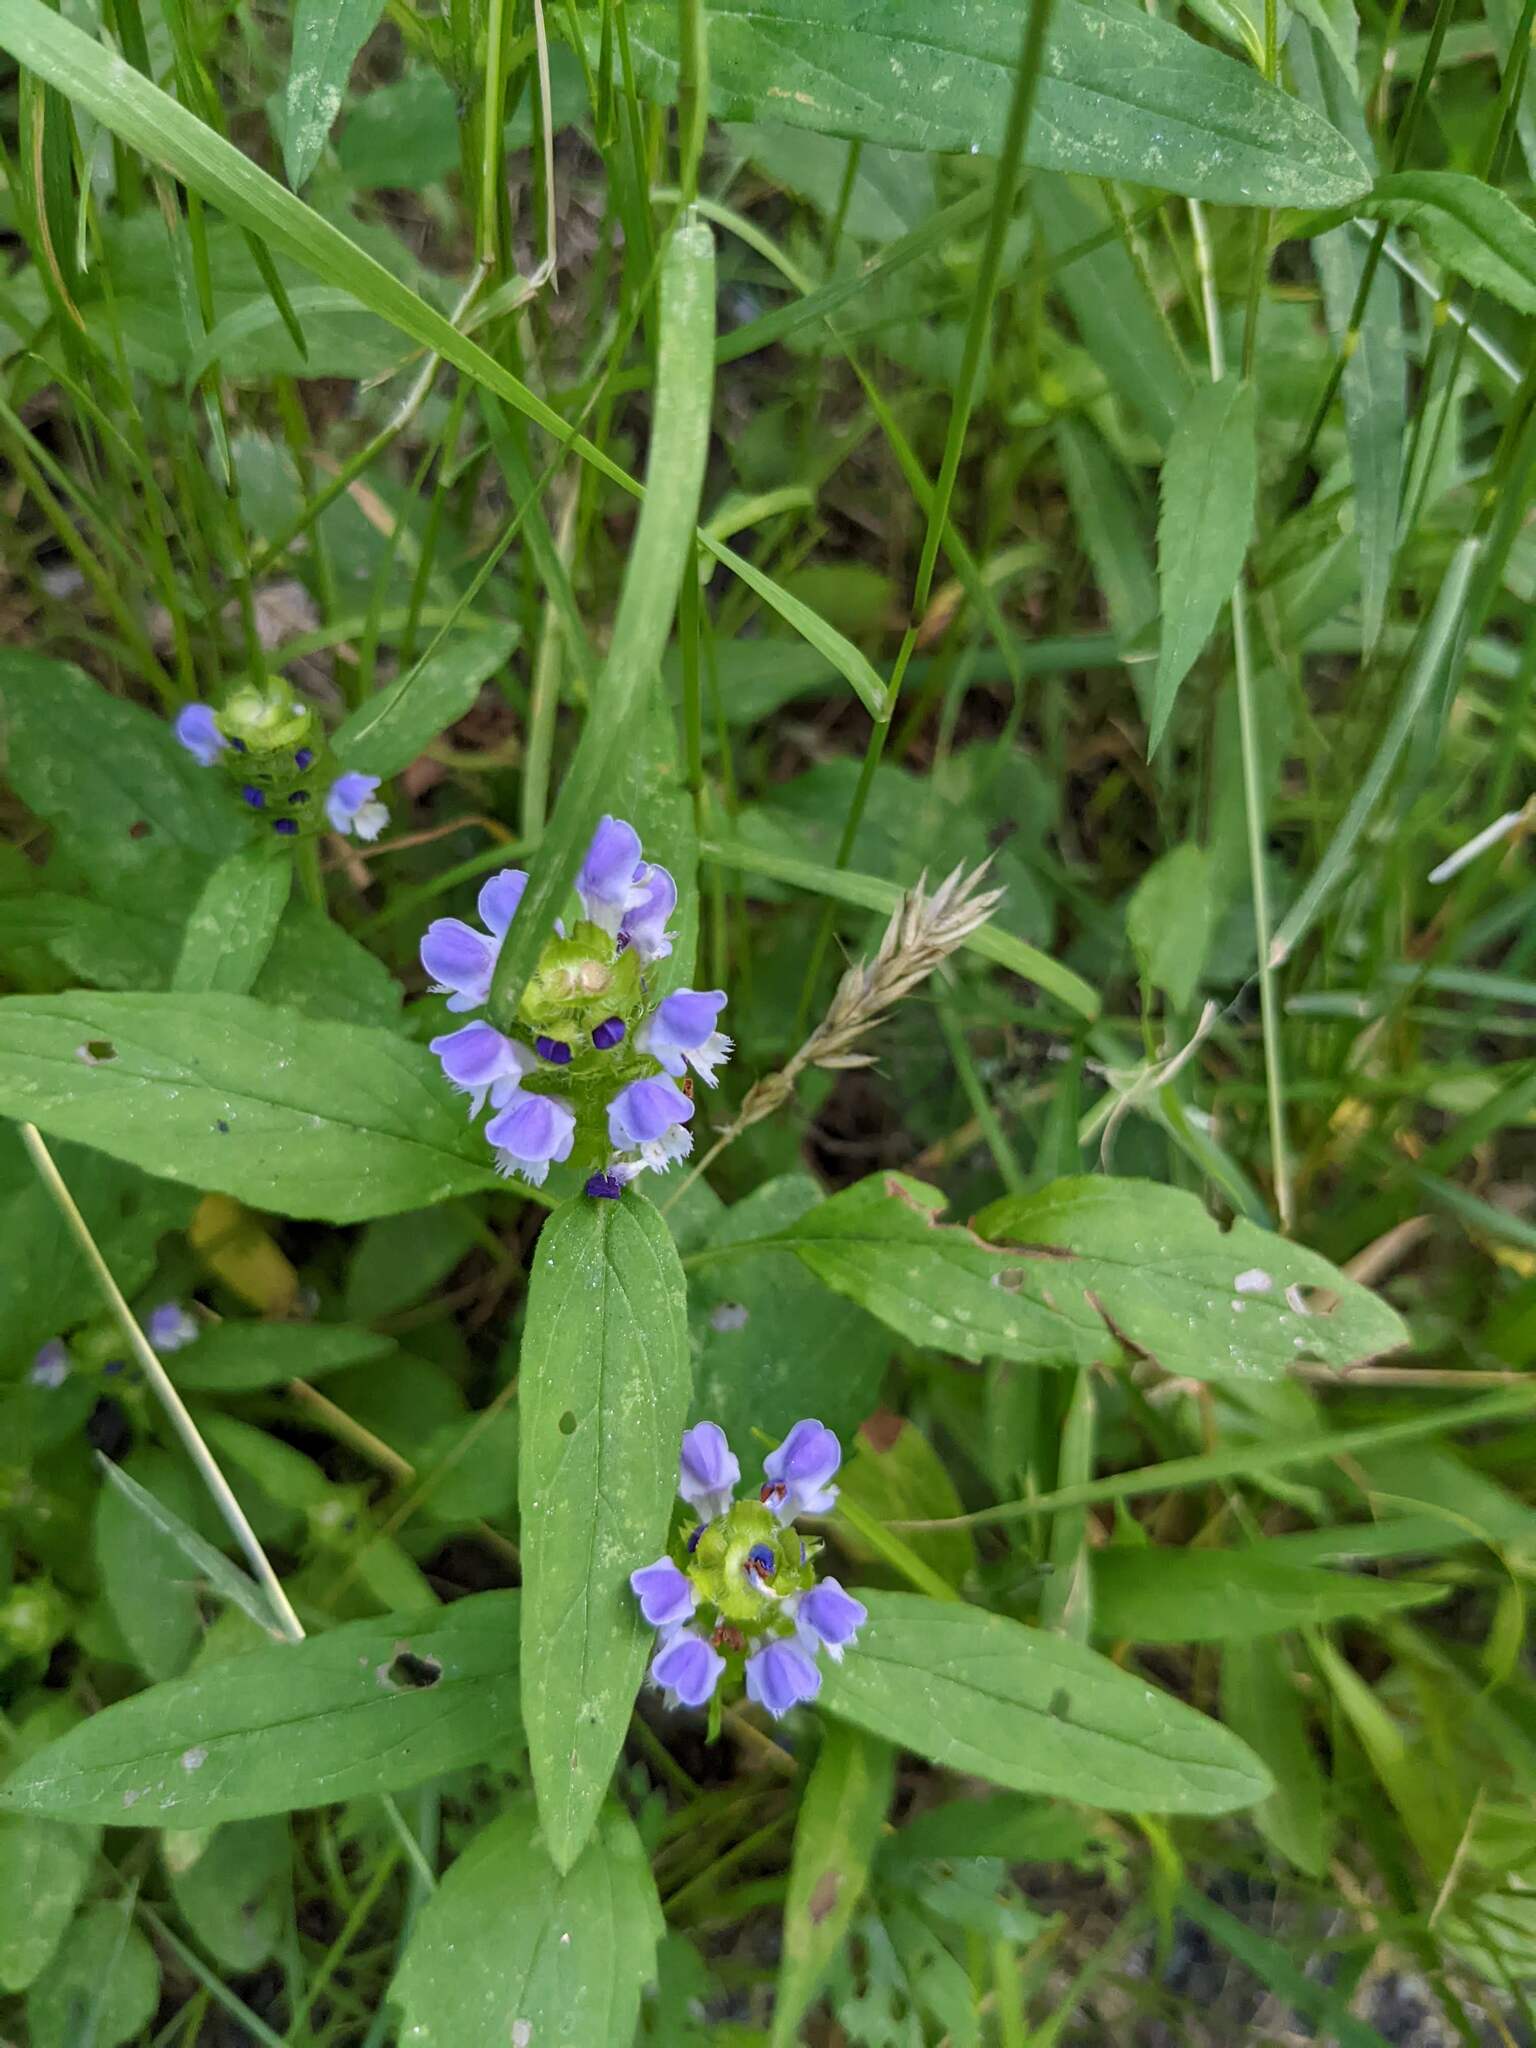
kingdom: Plantae
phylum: Tracheophyta
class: Magnoliopsida
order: Lamiales
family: Lamiaceae
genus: Prunella
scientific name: Prunella vulgaris
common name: Heal-all
